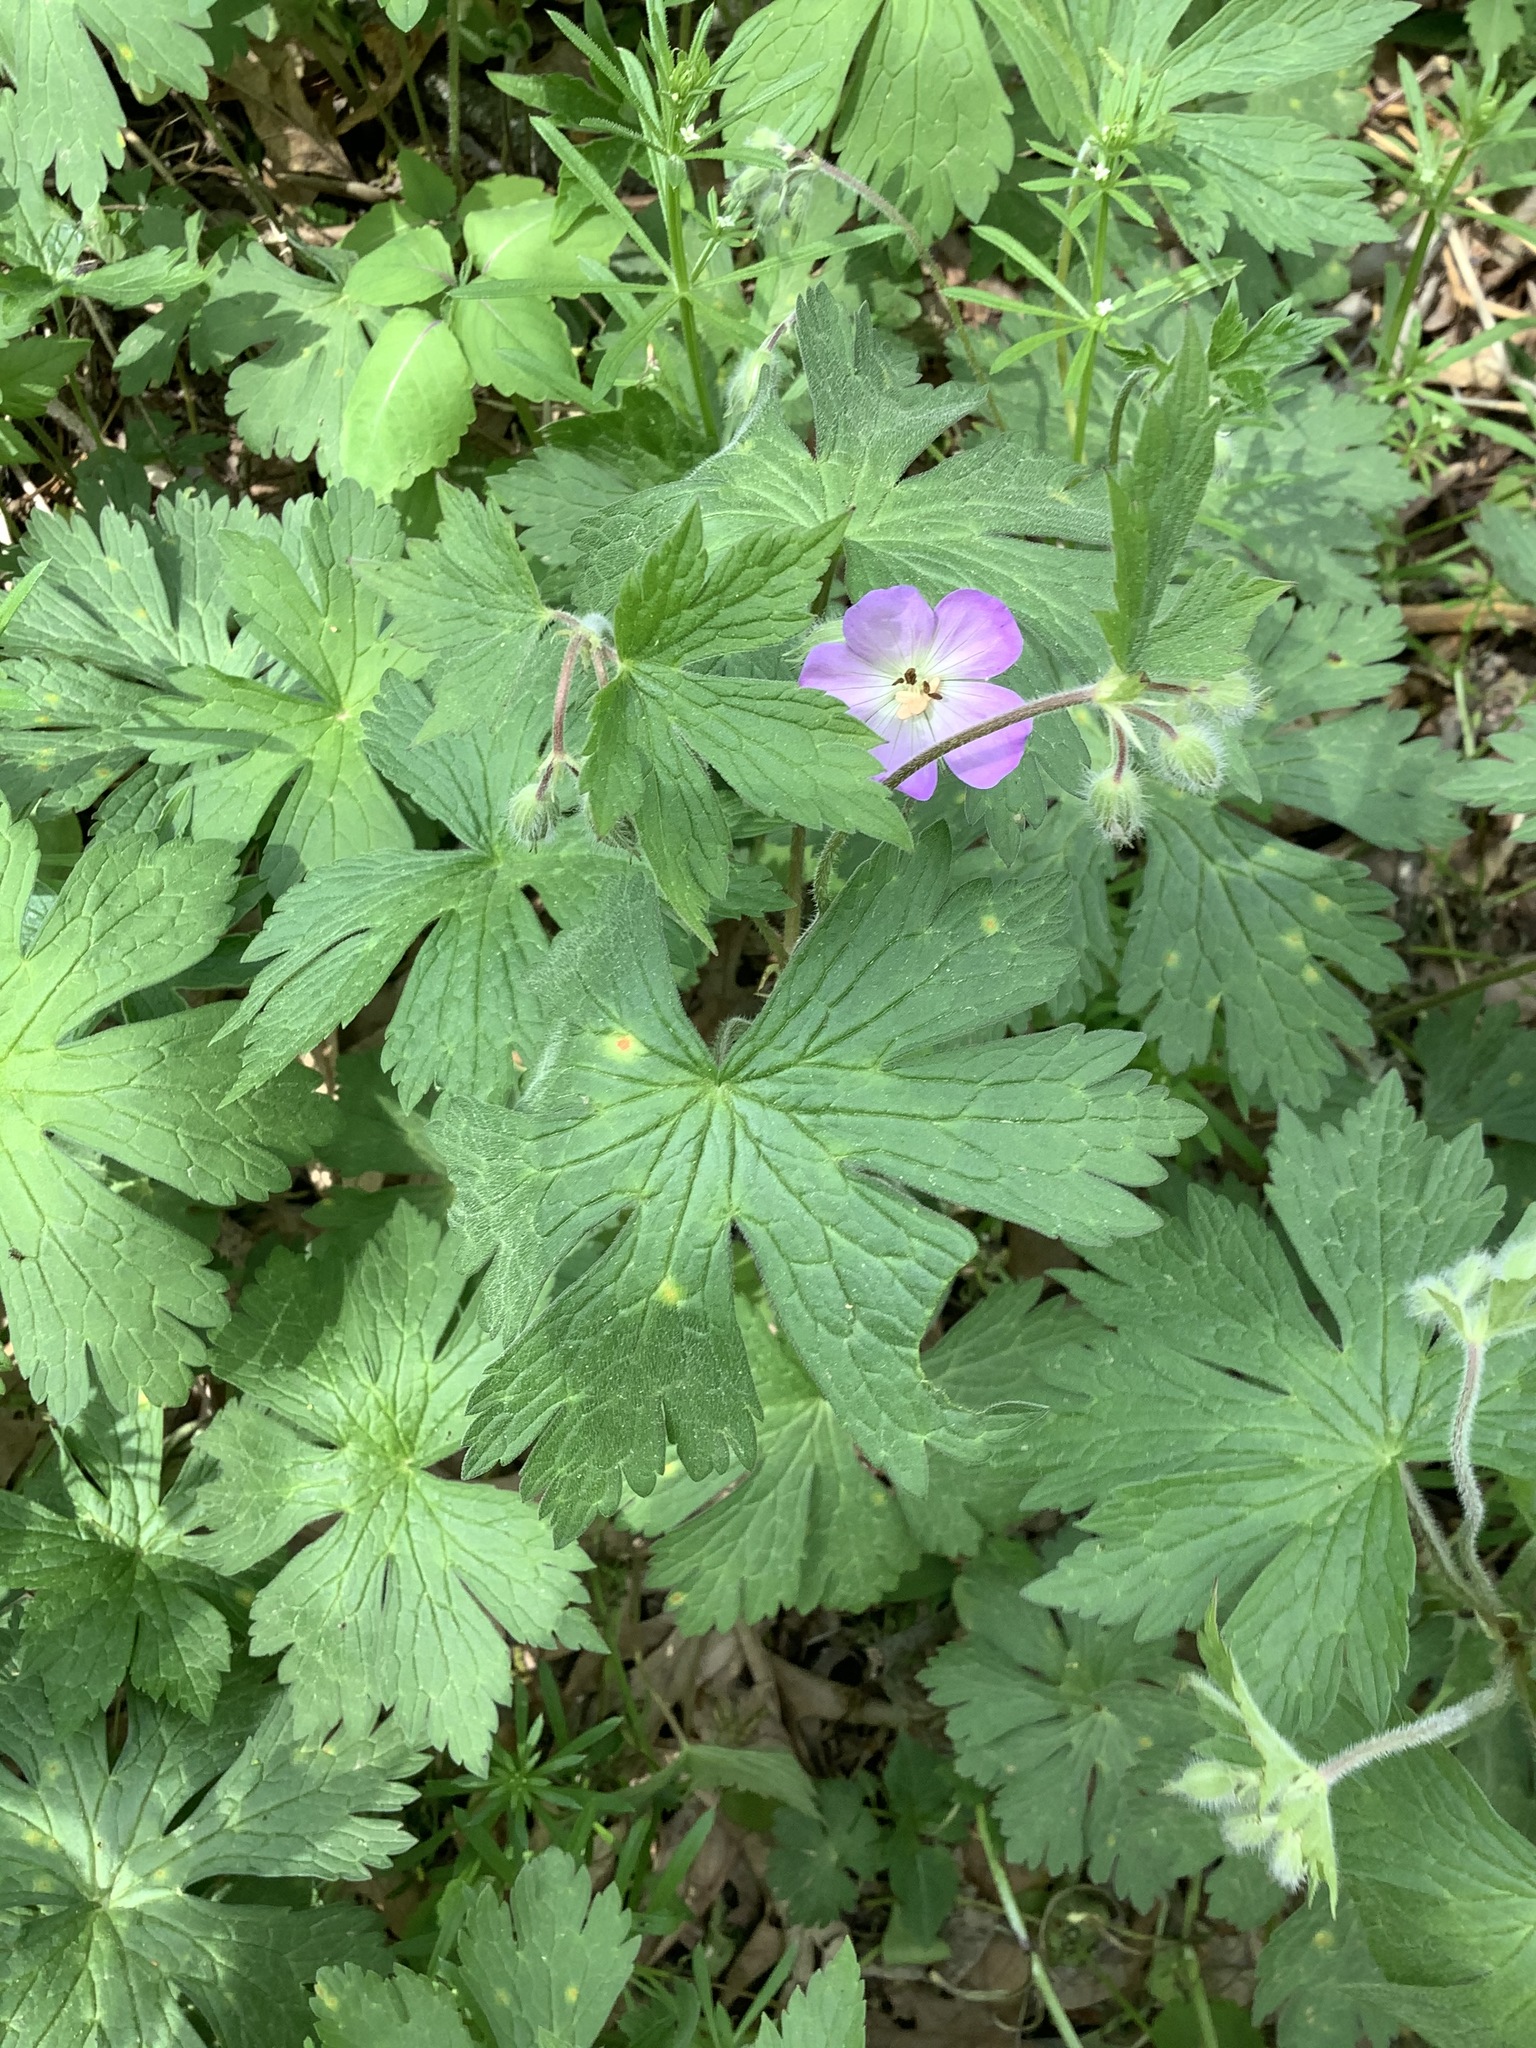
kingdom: Plantae
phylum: Tracheophyta
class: Magnoliopsida
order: Geraniales
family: Geraniaceae
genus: Geranium
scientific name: Geranium maculatum
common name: Spotted geranium
